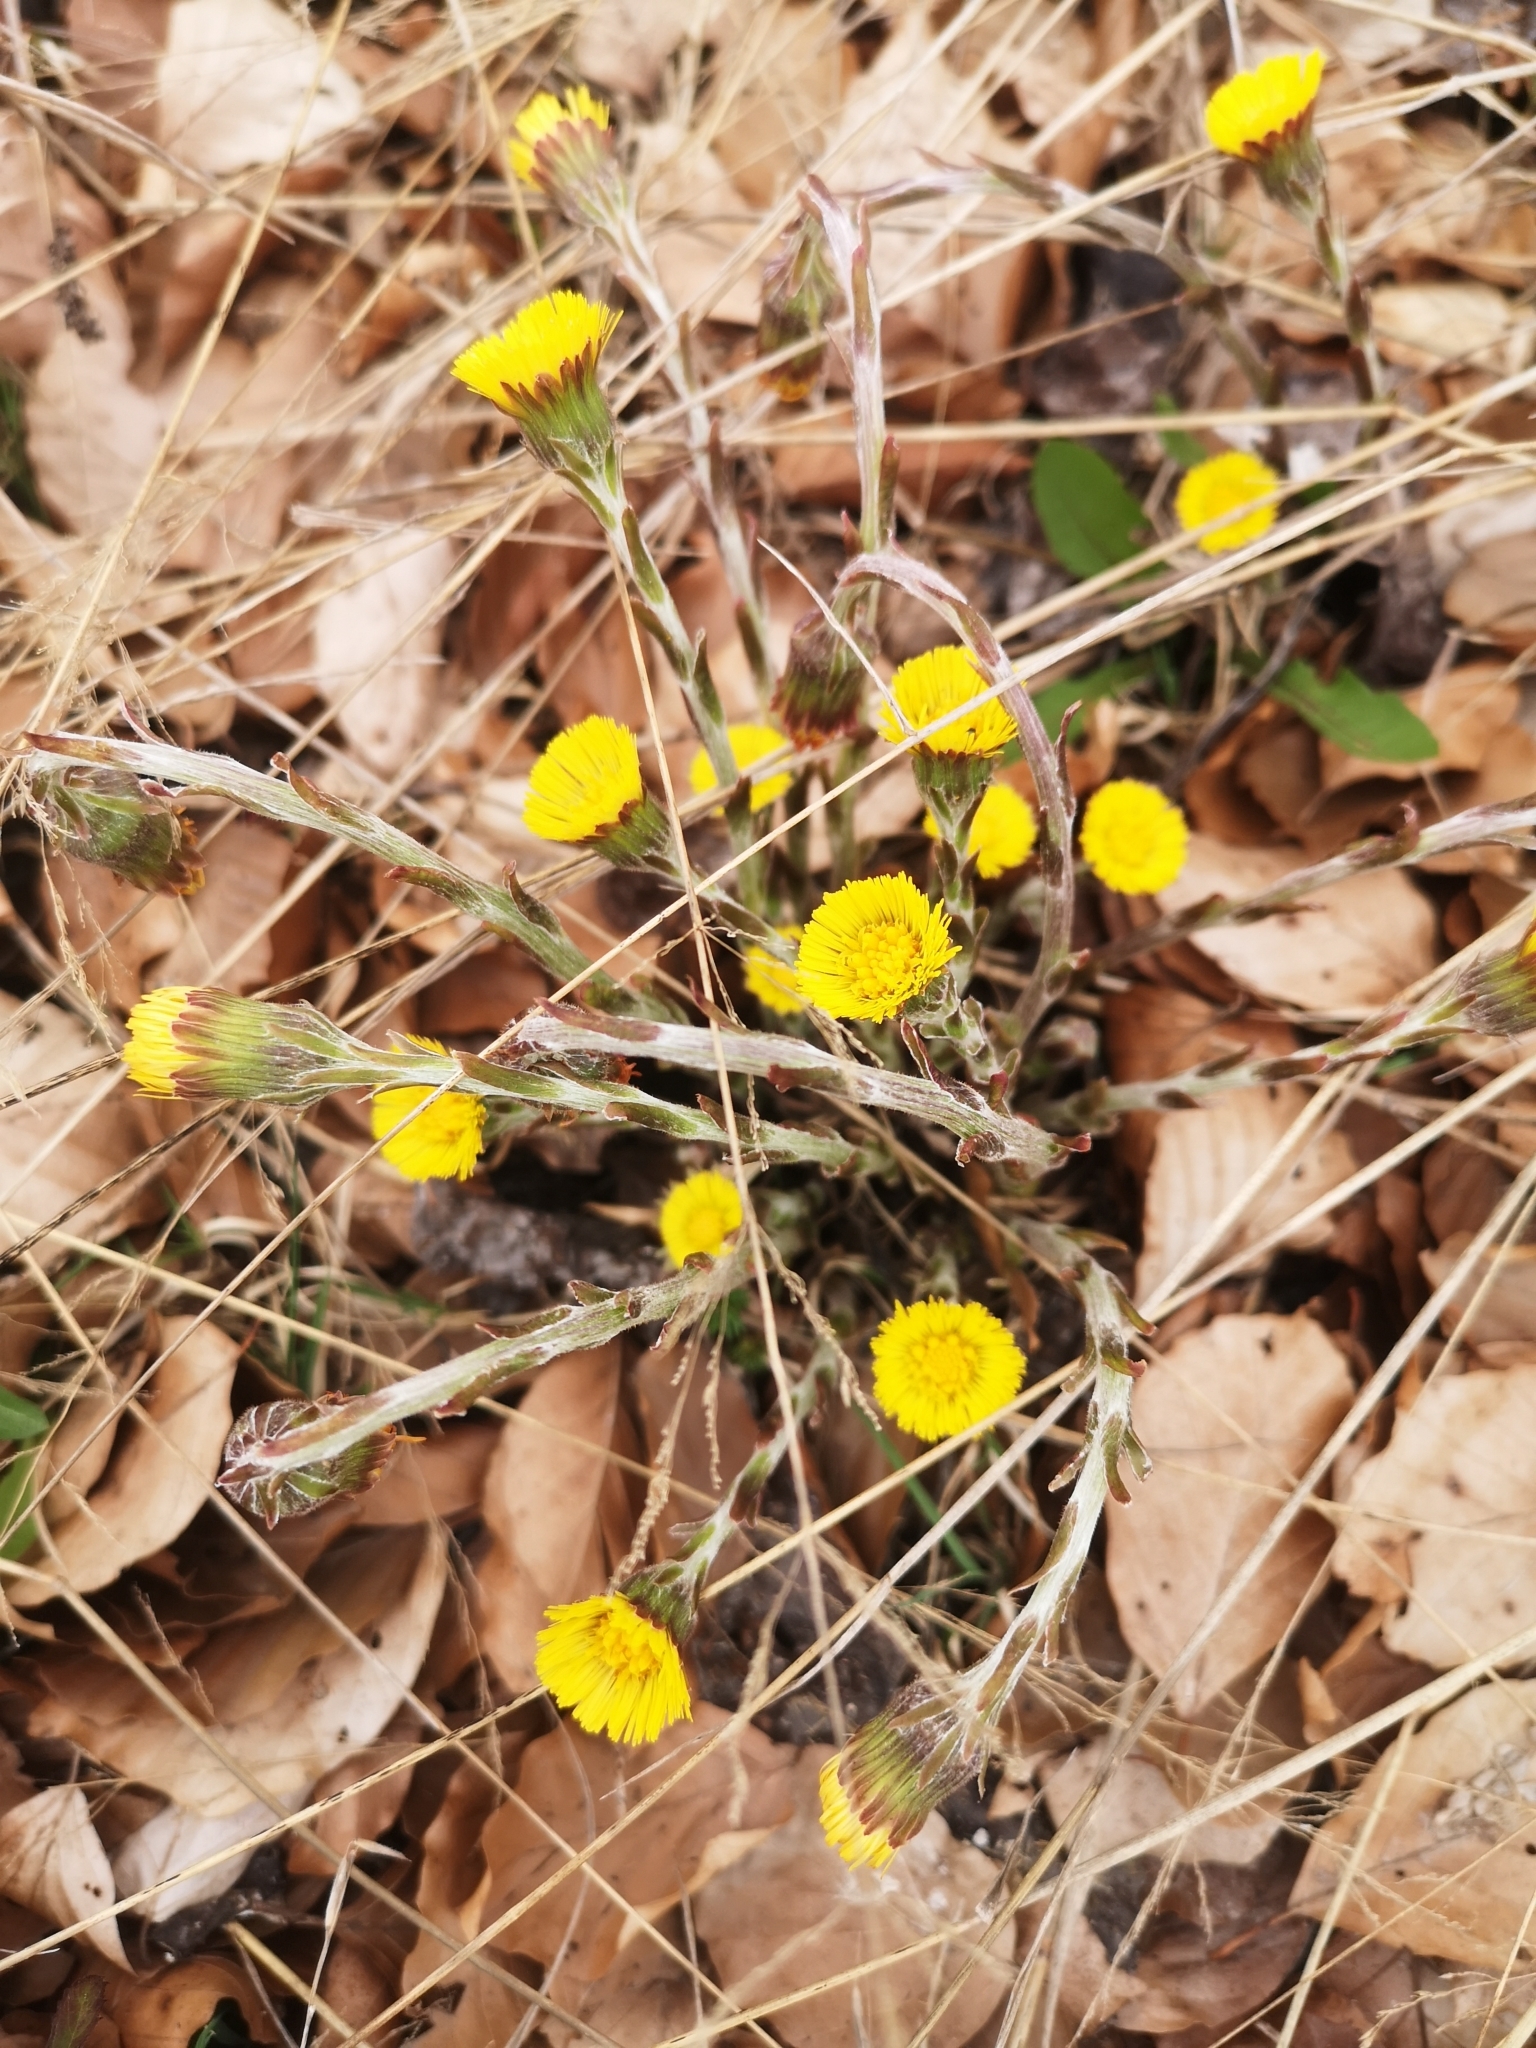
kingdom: Plantae
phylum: Tracheophyta
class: Magnoliopsida
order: Asterales
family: Asteraceae
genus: Tussilago
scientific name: Tussilago farfara
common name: Coltsfoot
